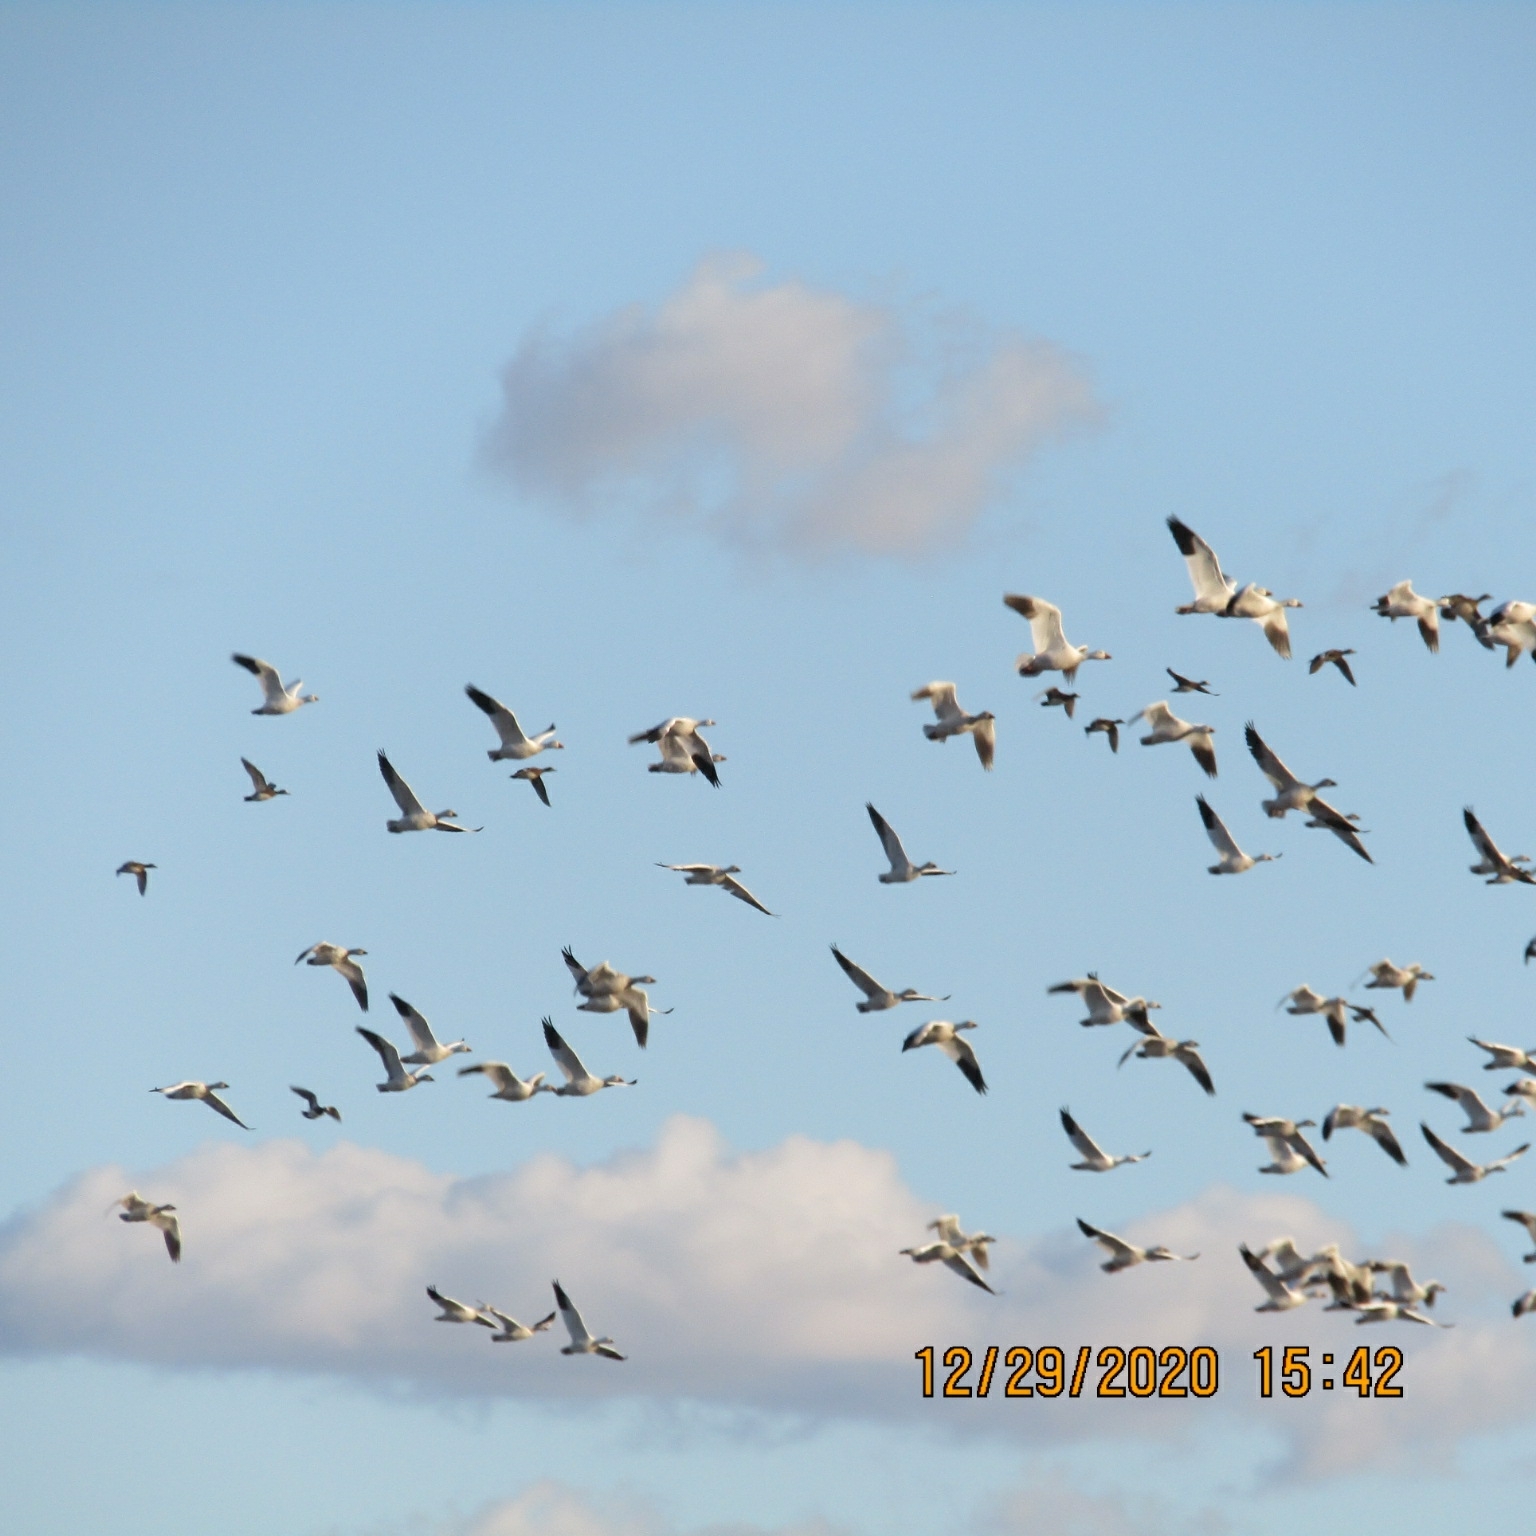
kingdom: Animalia
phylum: Chordata
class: Aves
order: Anseriformes
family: Anatidae
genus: Anser
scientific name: Anser caerulescens
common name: Snow goose
